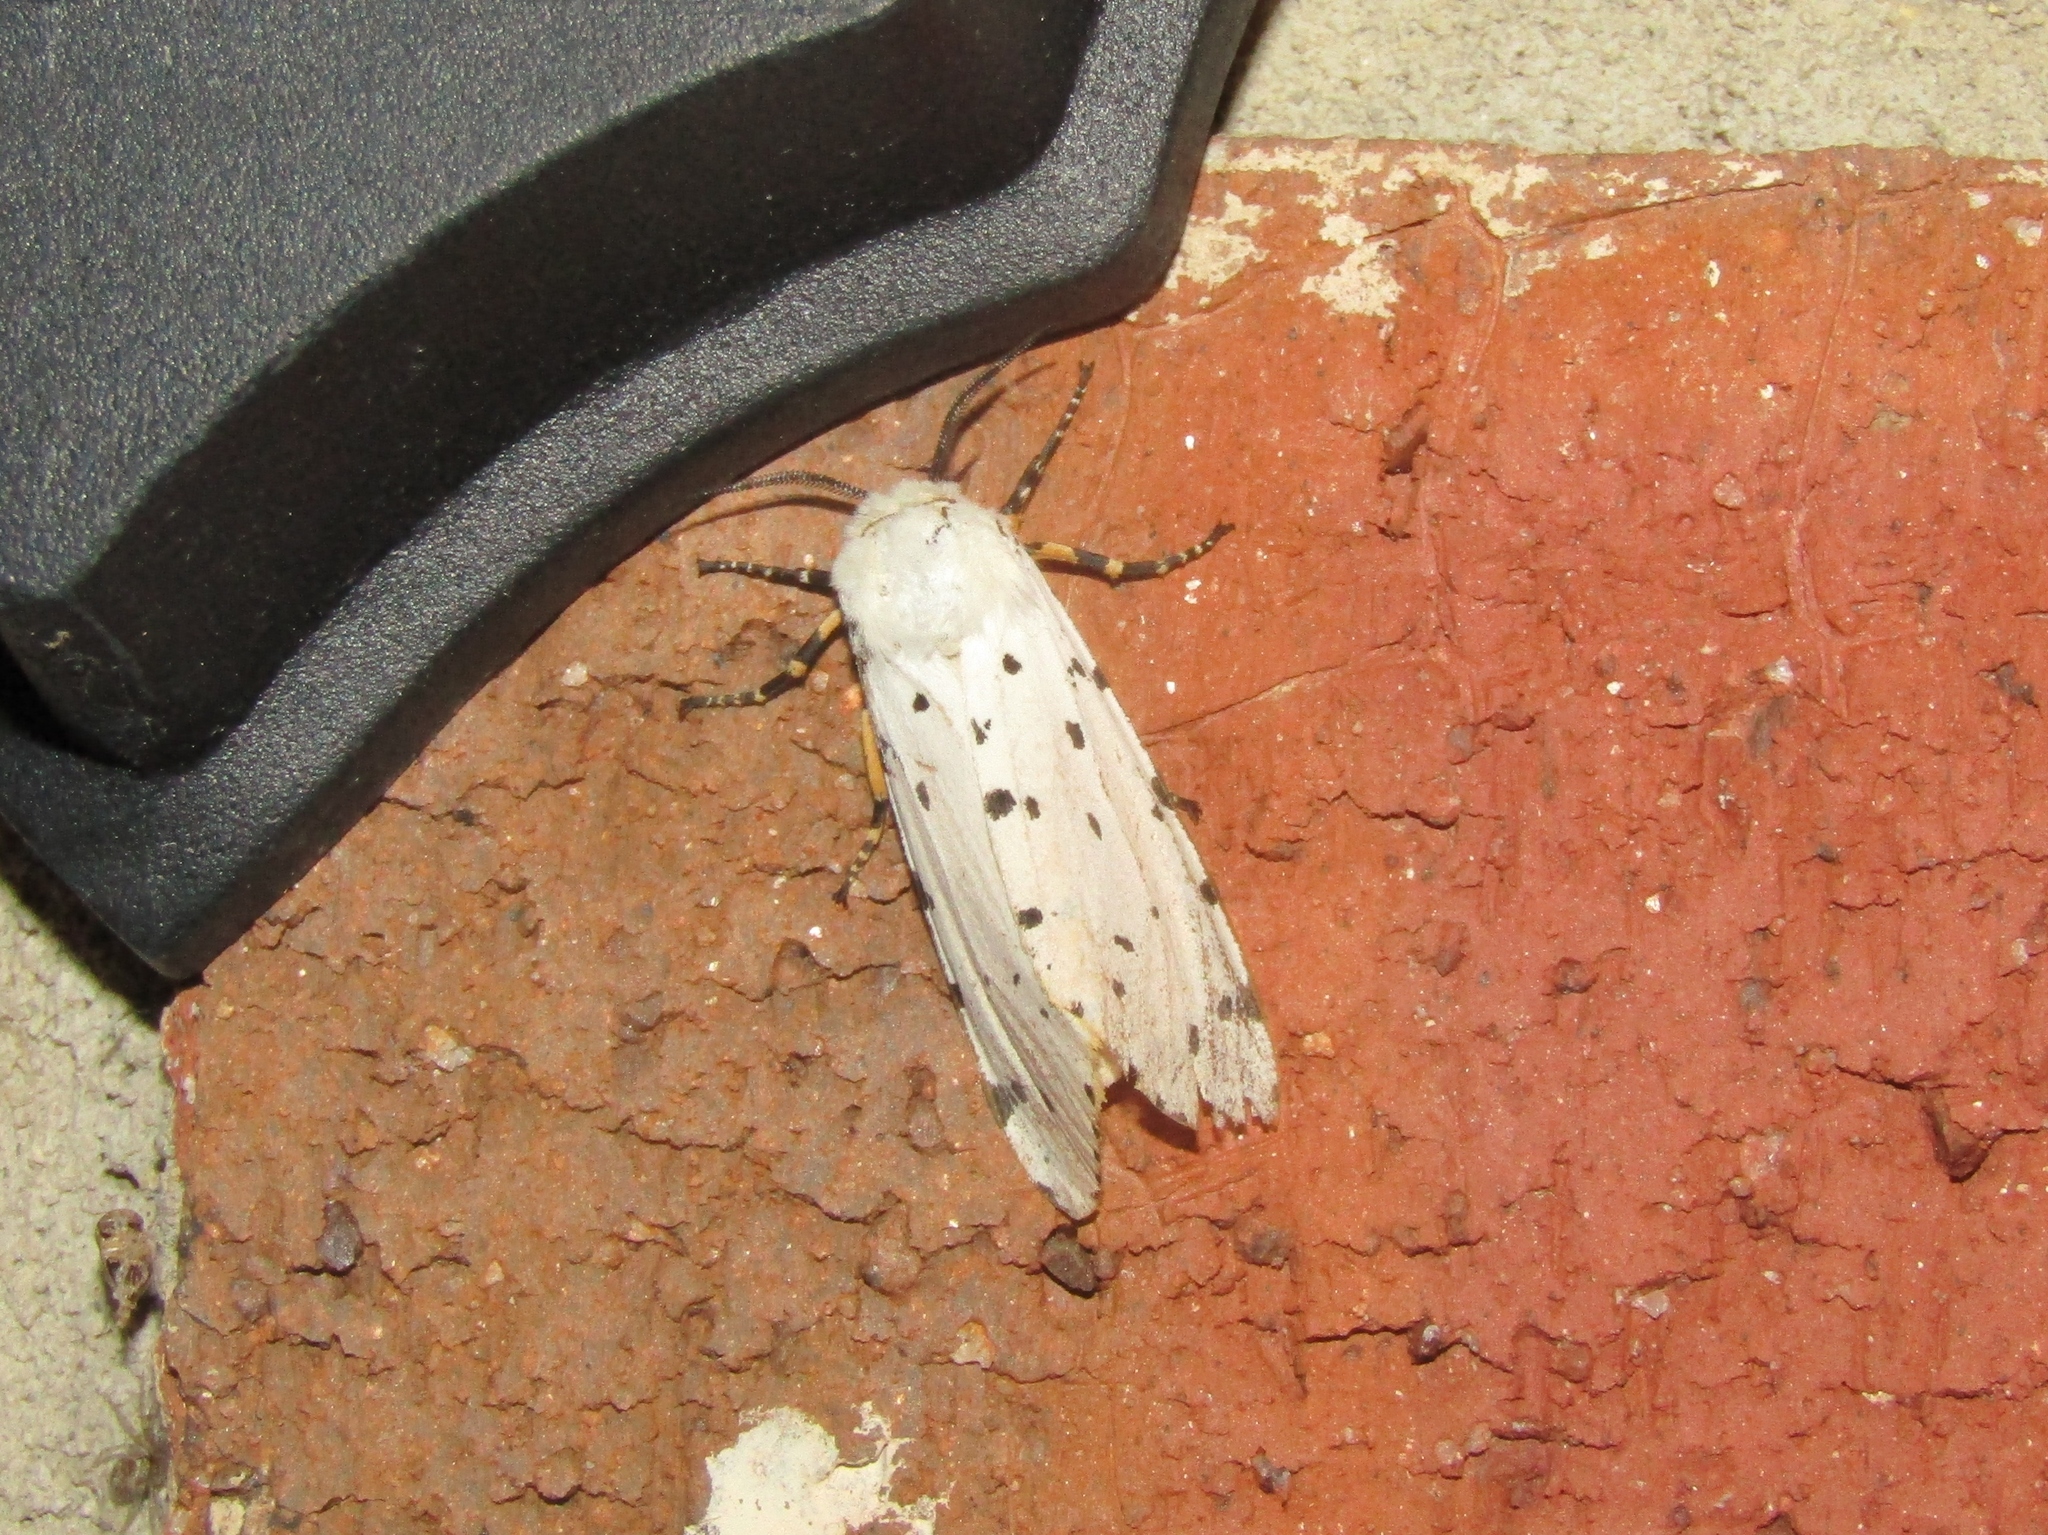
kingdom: Animalia
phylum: Arthropoda
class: Insecta
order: Lepidoptera
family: Erebidae
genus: Estigmene
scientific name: Estigmene acrea
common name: Salt marsh moth
